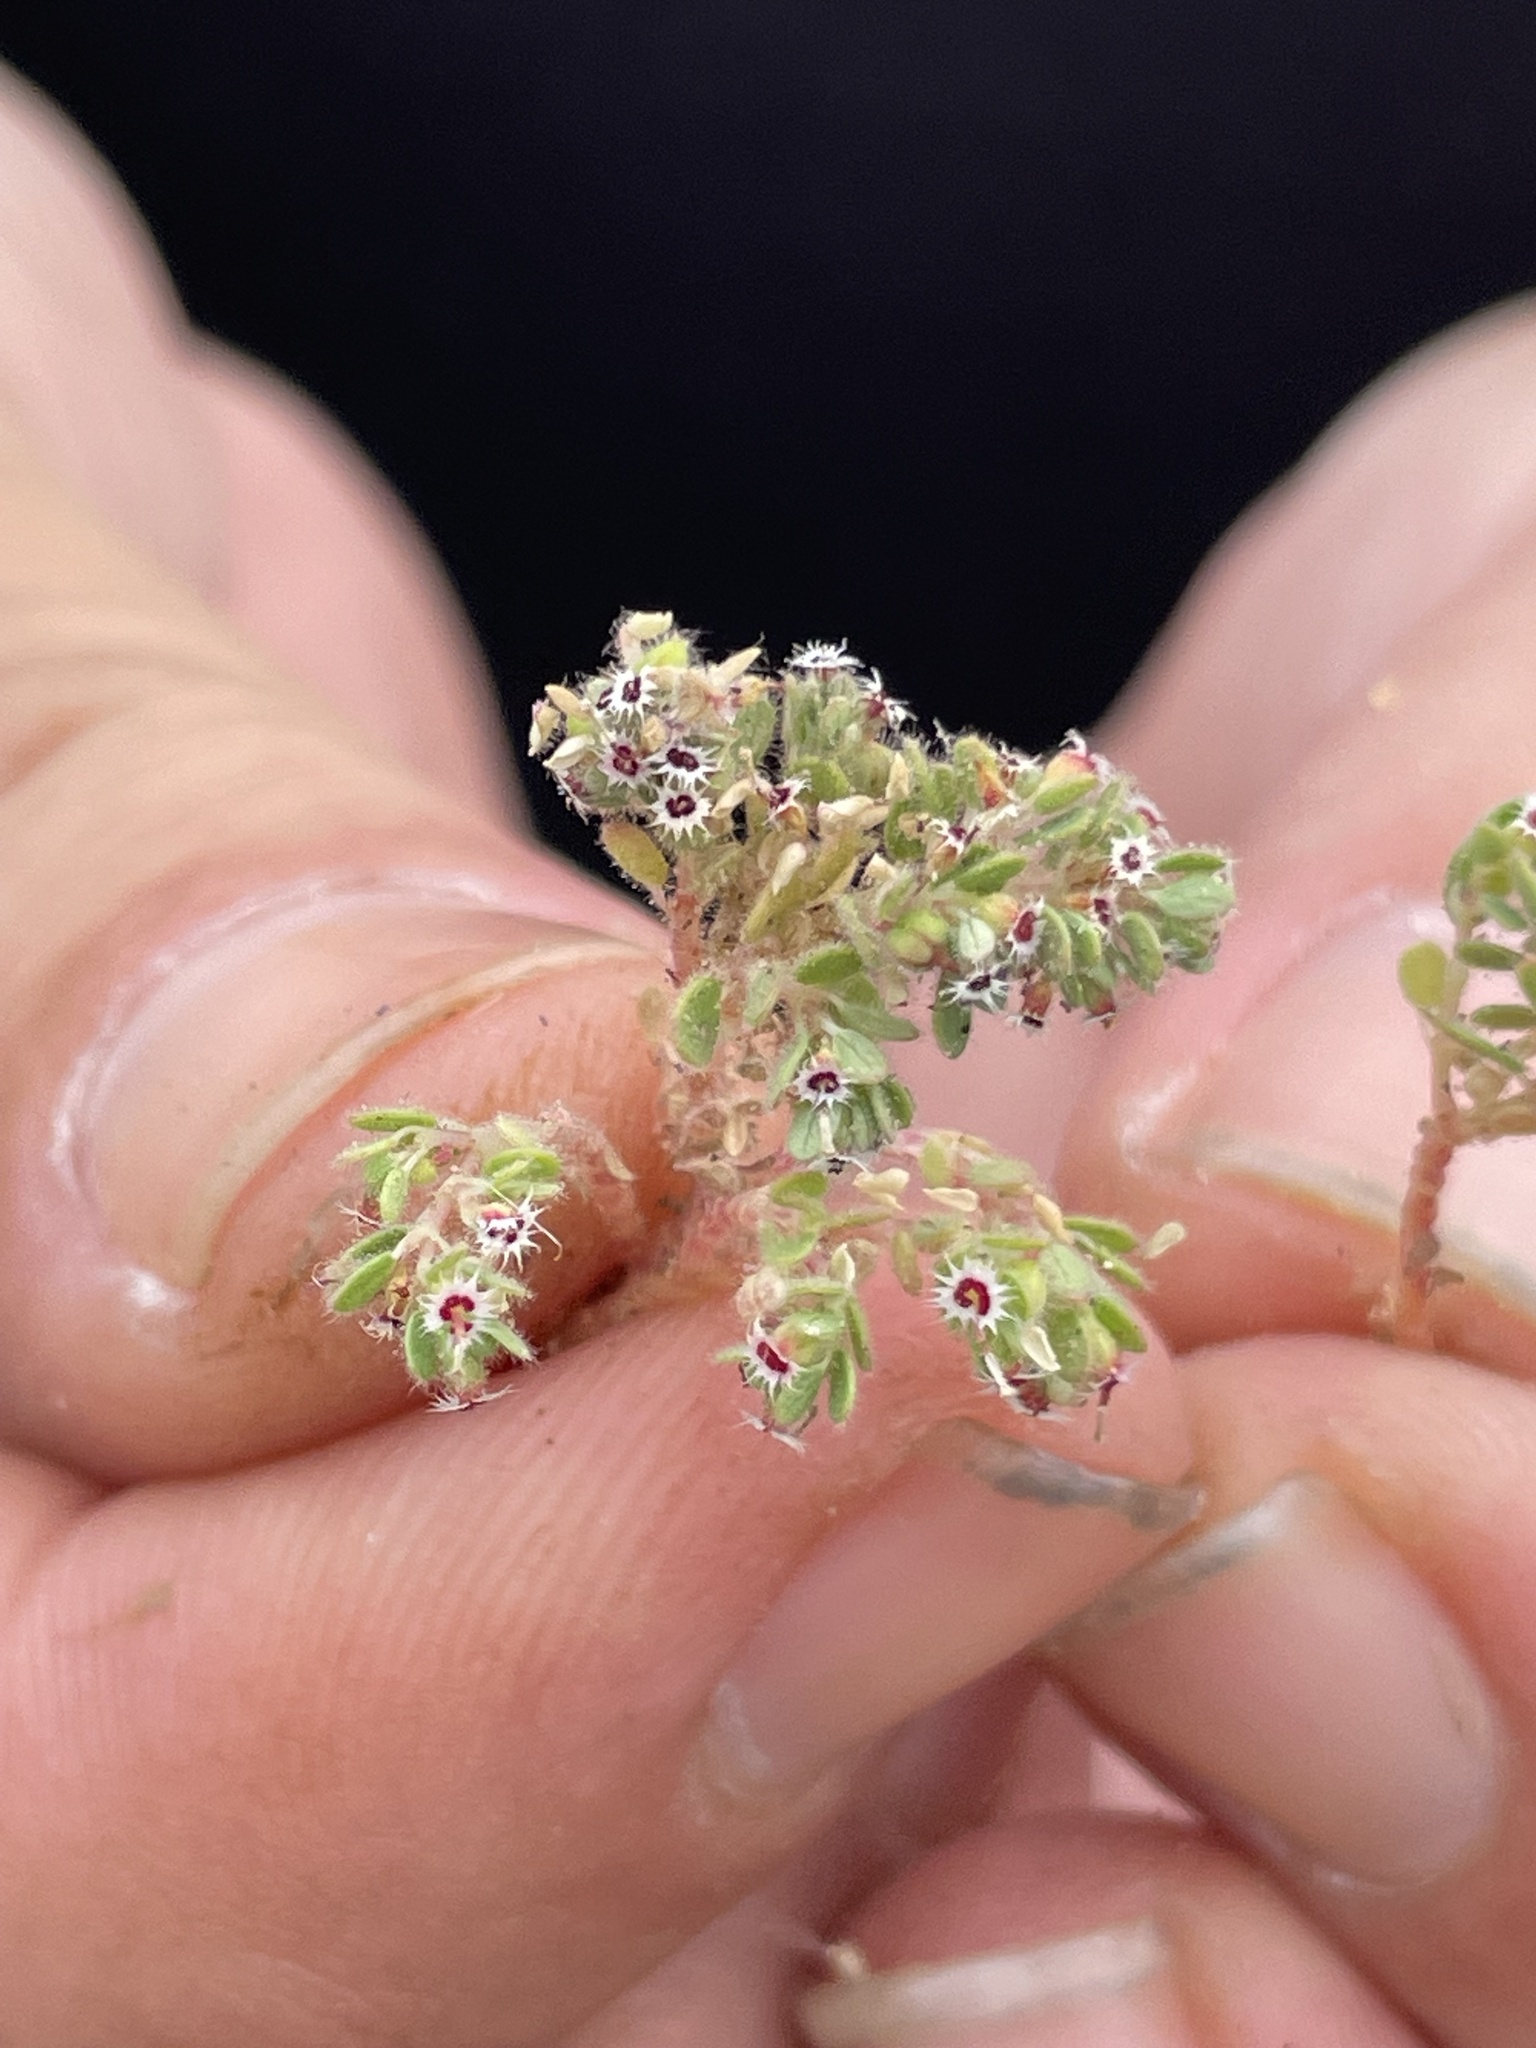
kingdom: Plantae
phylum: Tracheophyta
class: Magnoliopsida
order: Malpighiales
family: Euphorbiaceae
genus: Euphorbia
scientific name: Euphorbia setiloba
